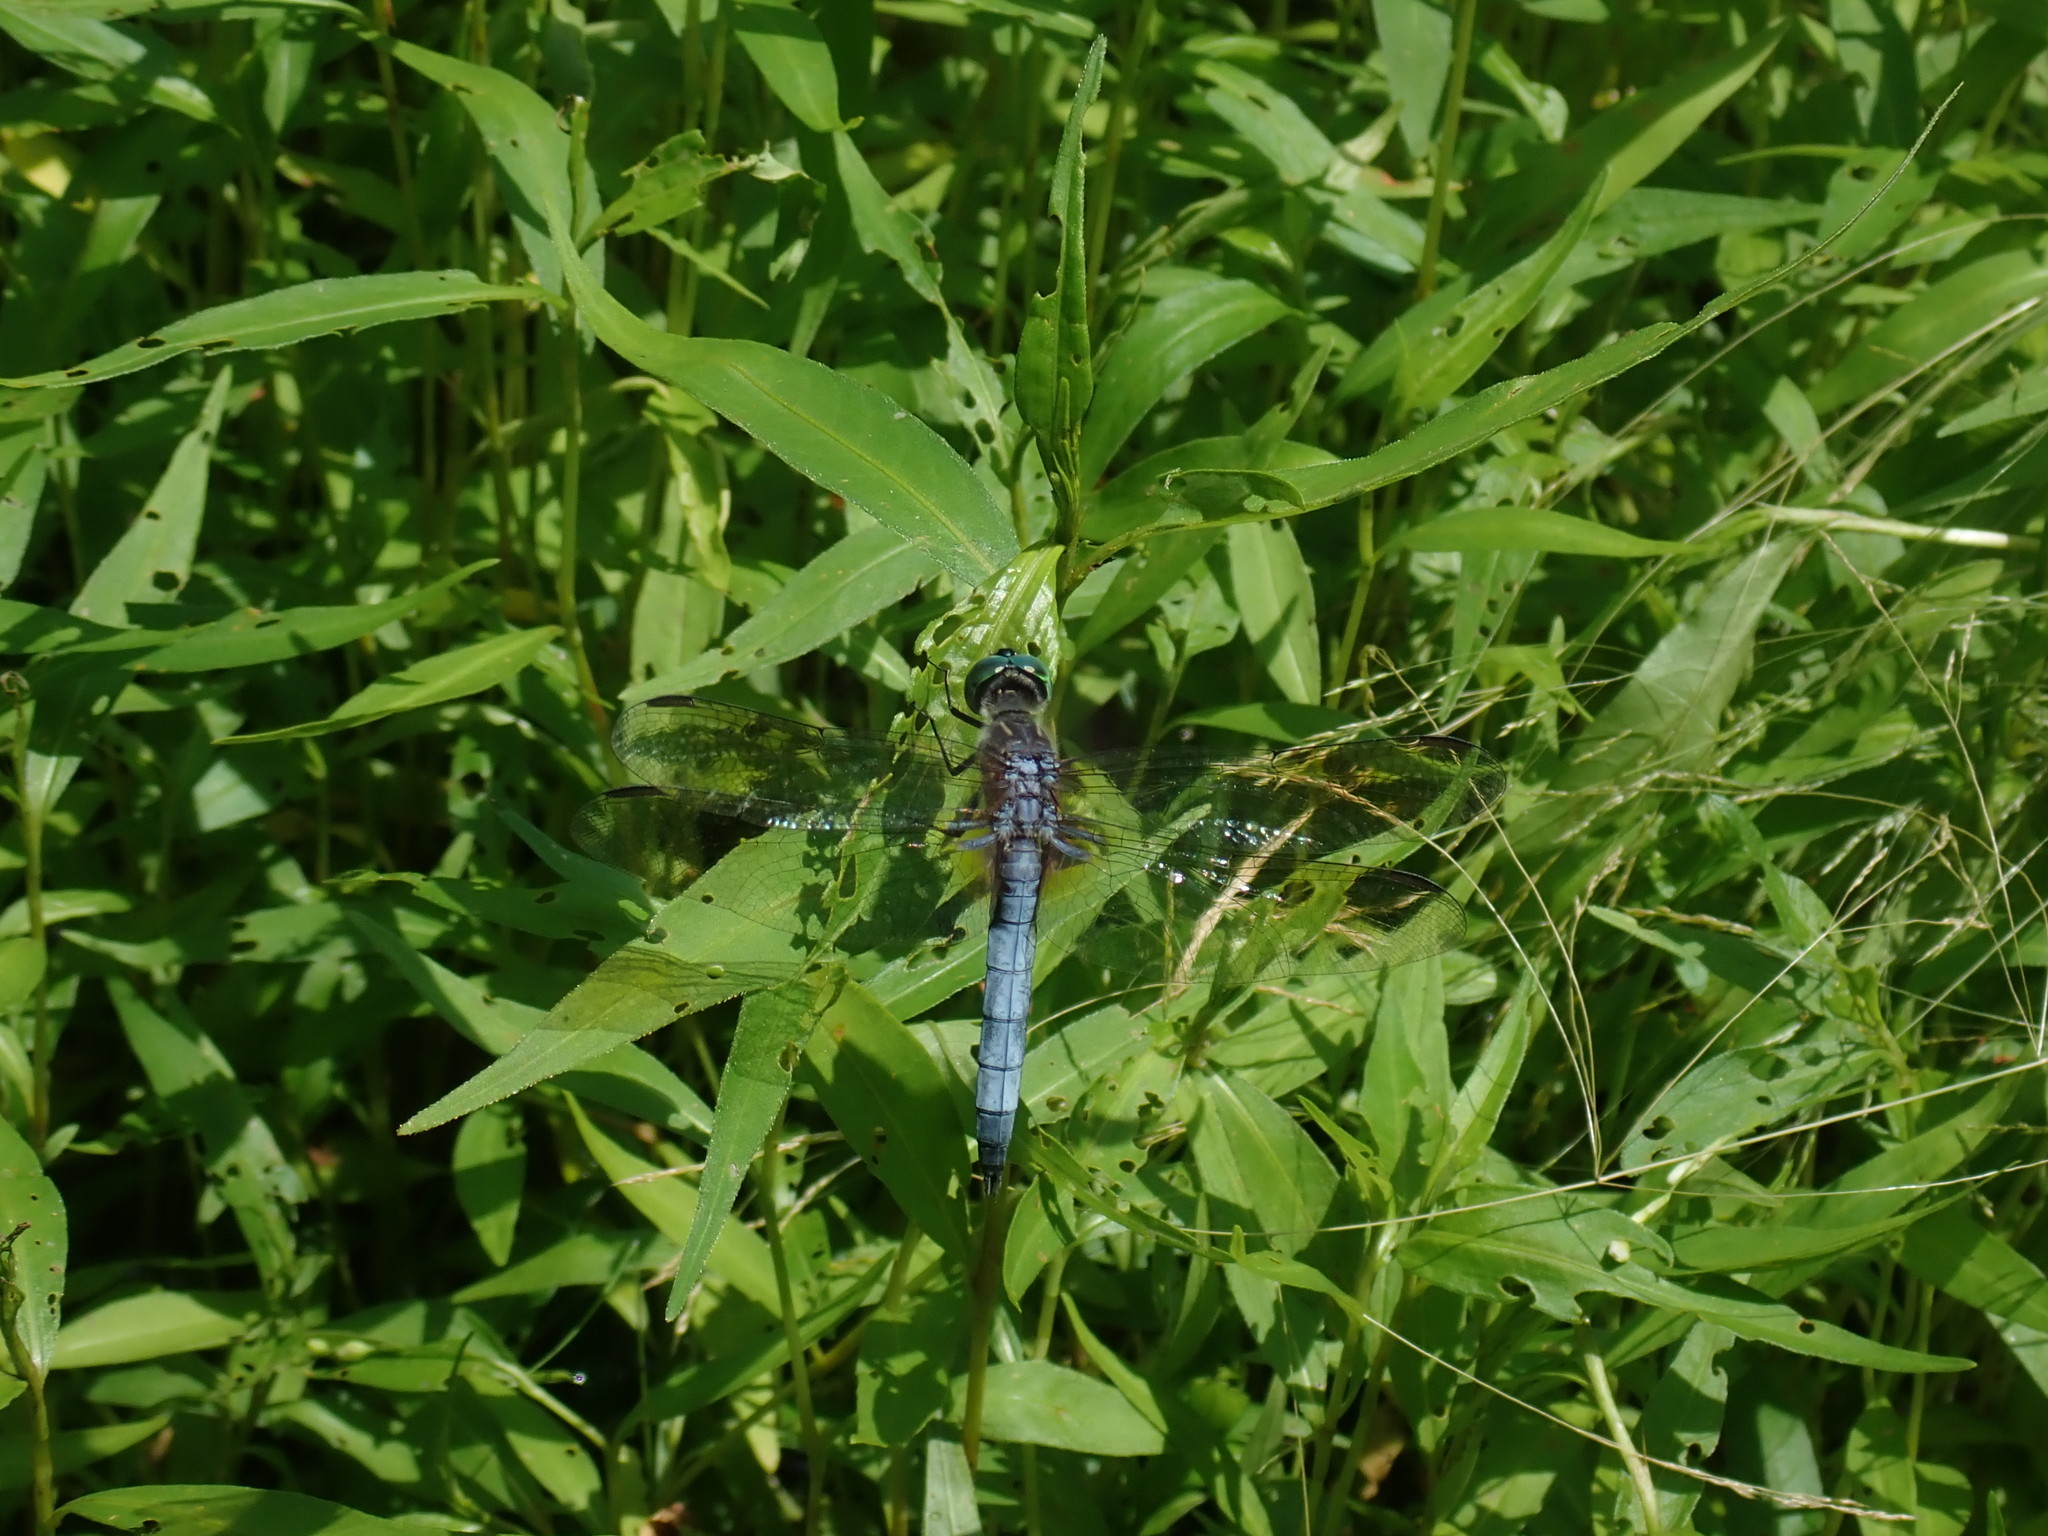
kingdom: Animalia
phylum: Arthropoda
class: Insecta
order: Odonata
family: Libellulidae
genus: Pachydiplax
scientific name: Pachydiplax longipennis
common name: Blue dasher
